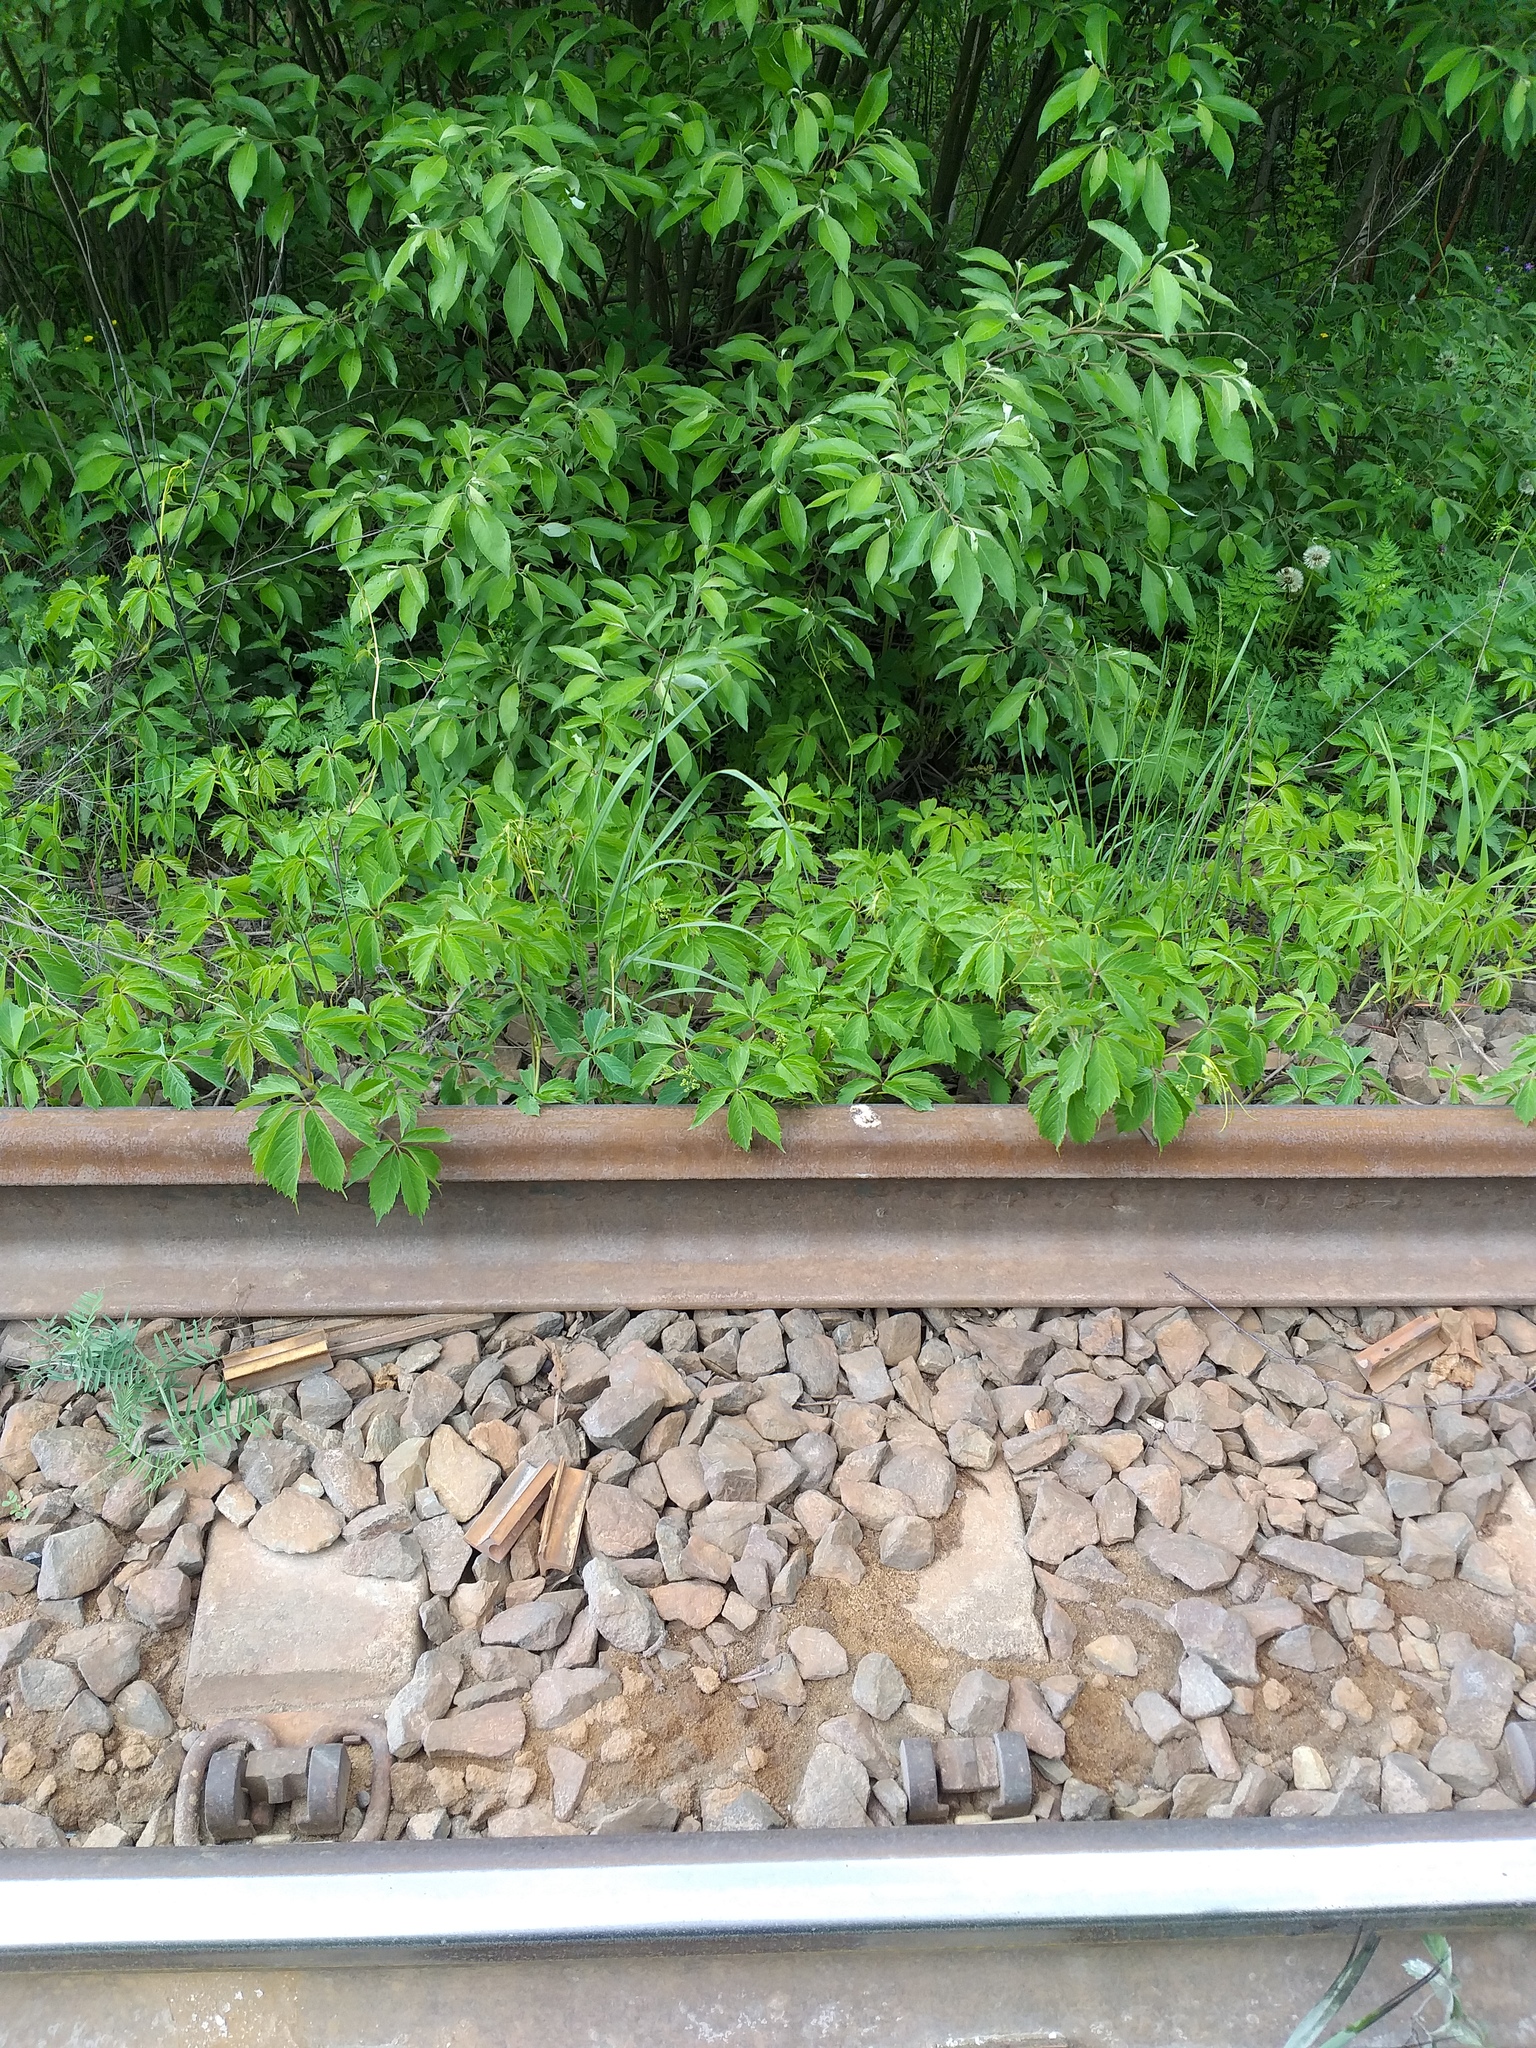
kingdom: Plantae
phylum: Tracheophyta
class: Magnoliopsida
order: Vitales
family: Vitaceae
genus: Parthenocissus
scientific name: Parthenocissus inserta
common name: False virginia-creeper
